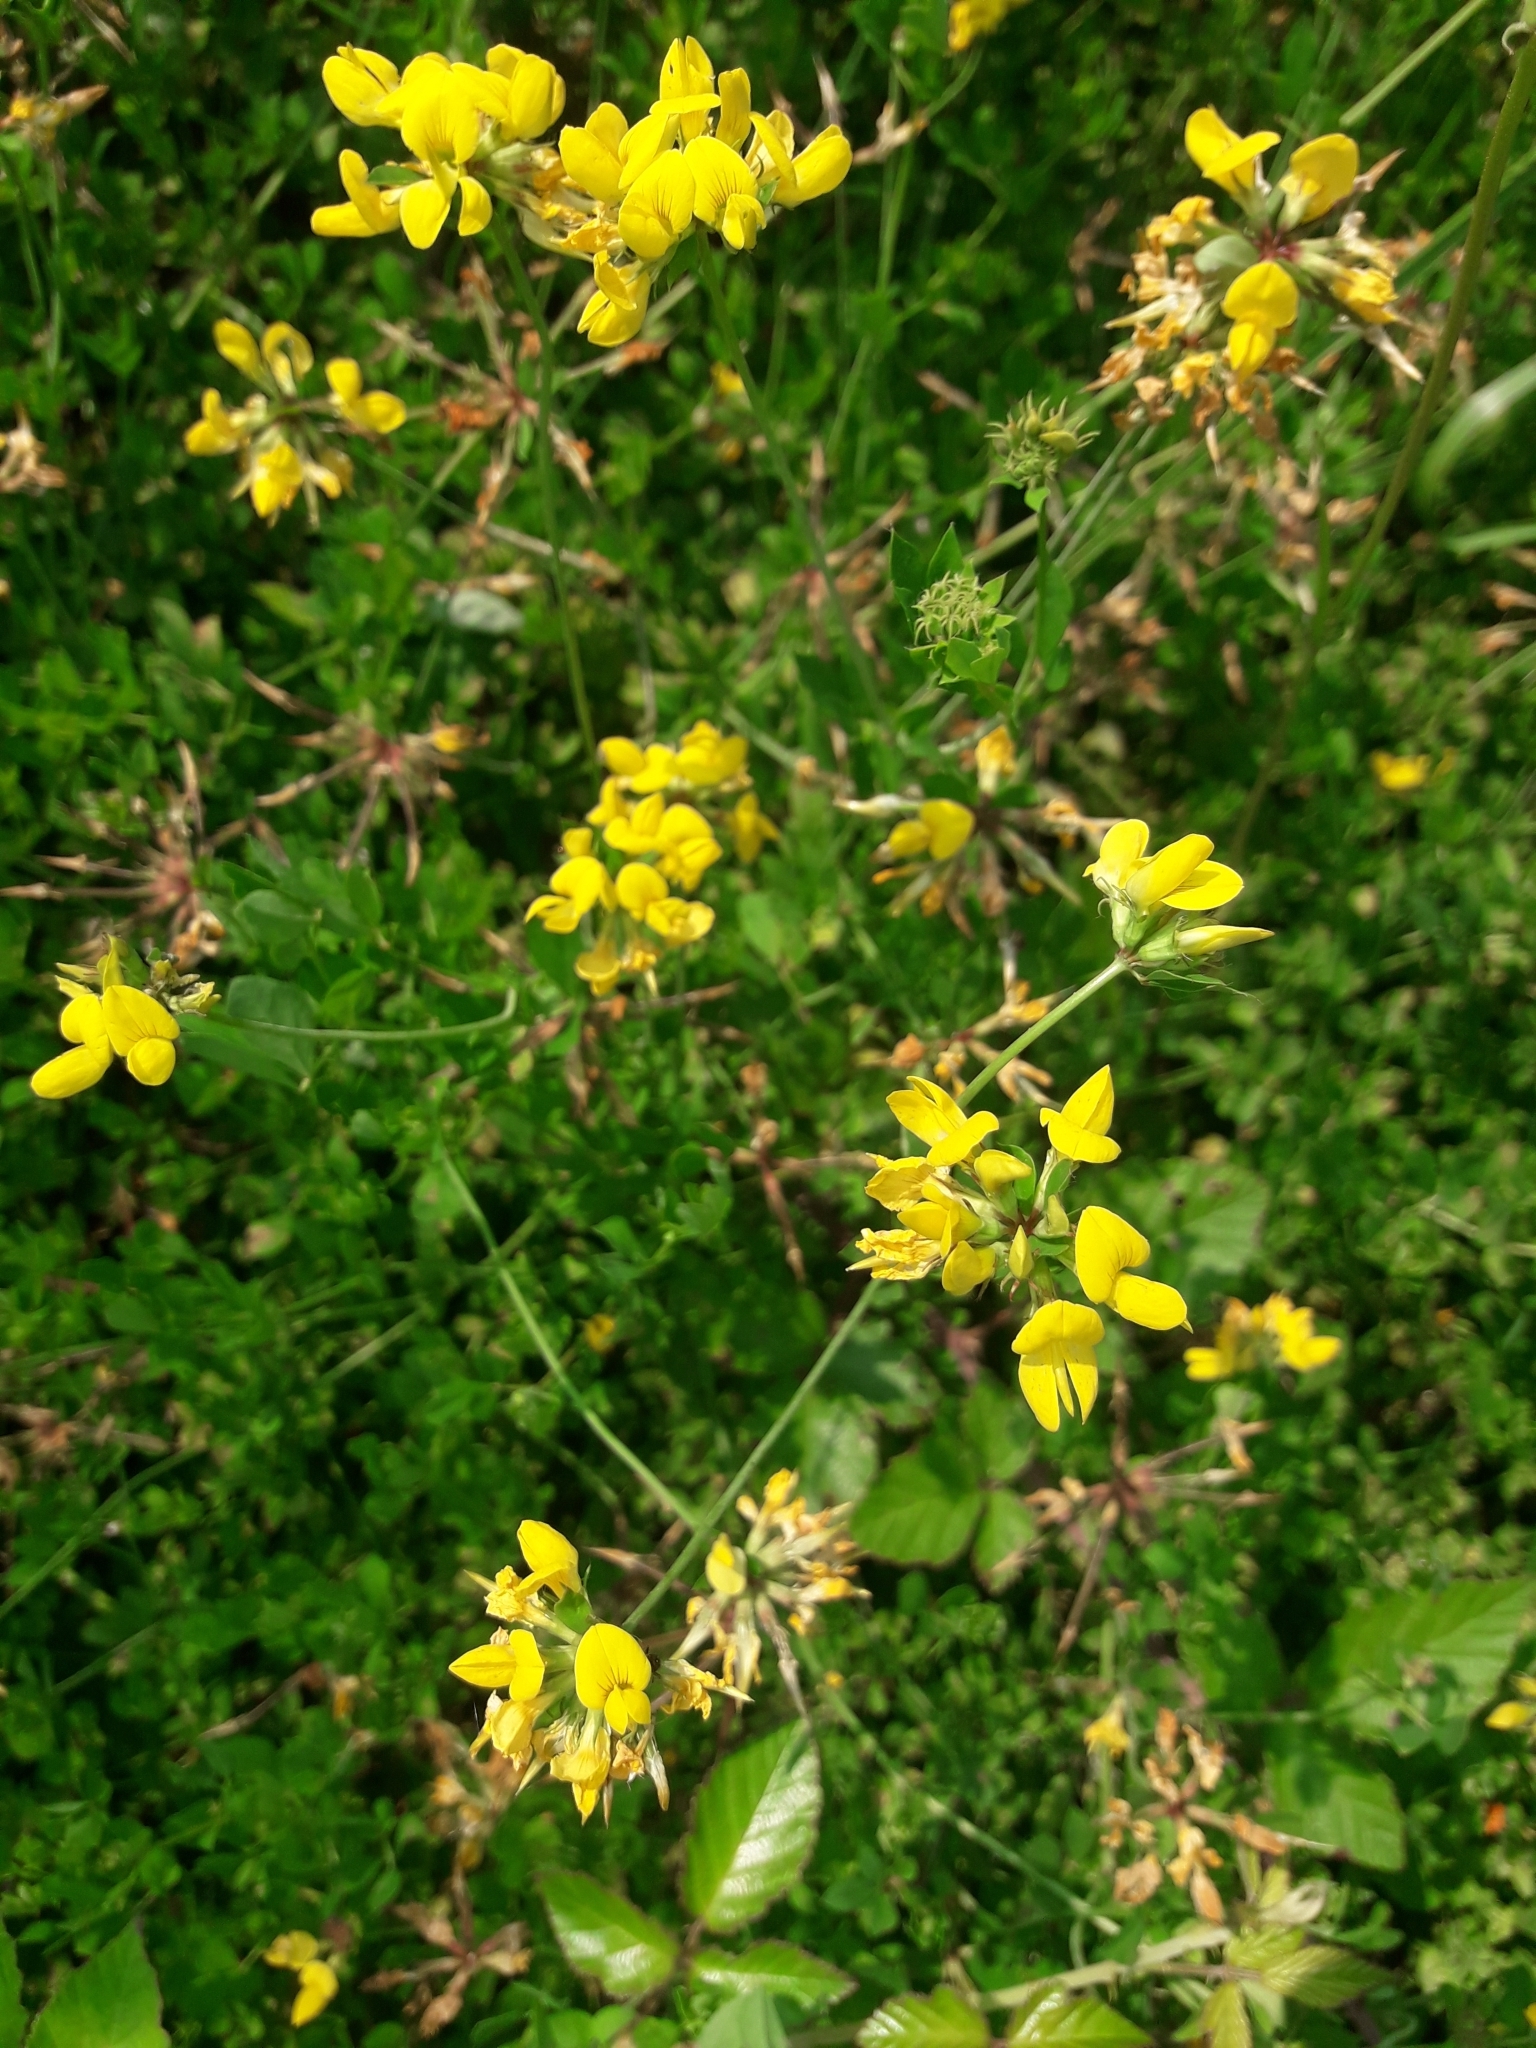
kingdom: Plantae
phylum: Tracheophyta
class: Magnoliopsida
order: Fabales
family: Fabaceae
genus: Lotus
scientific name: Lotus pedunculatus
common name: Greater birdsfoot-trefoil
